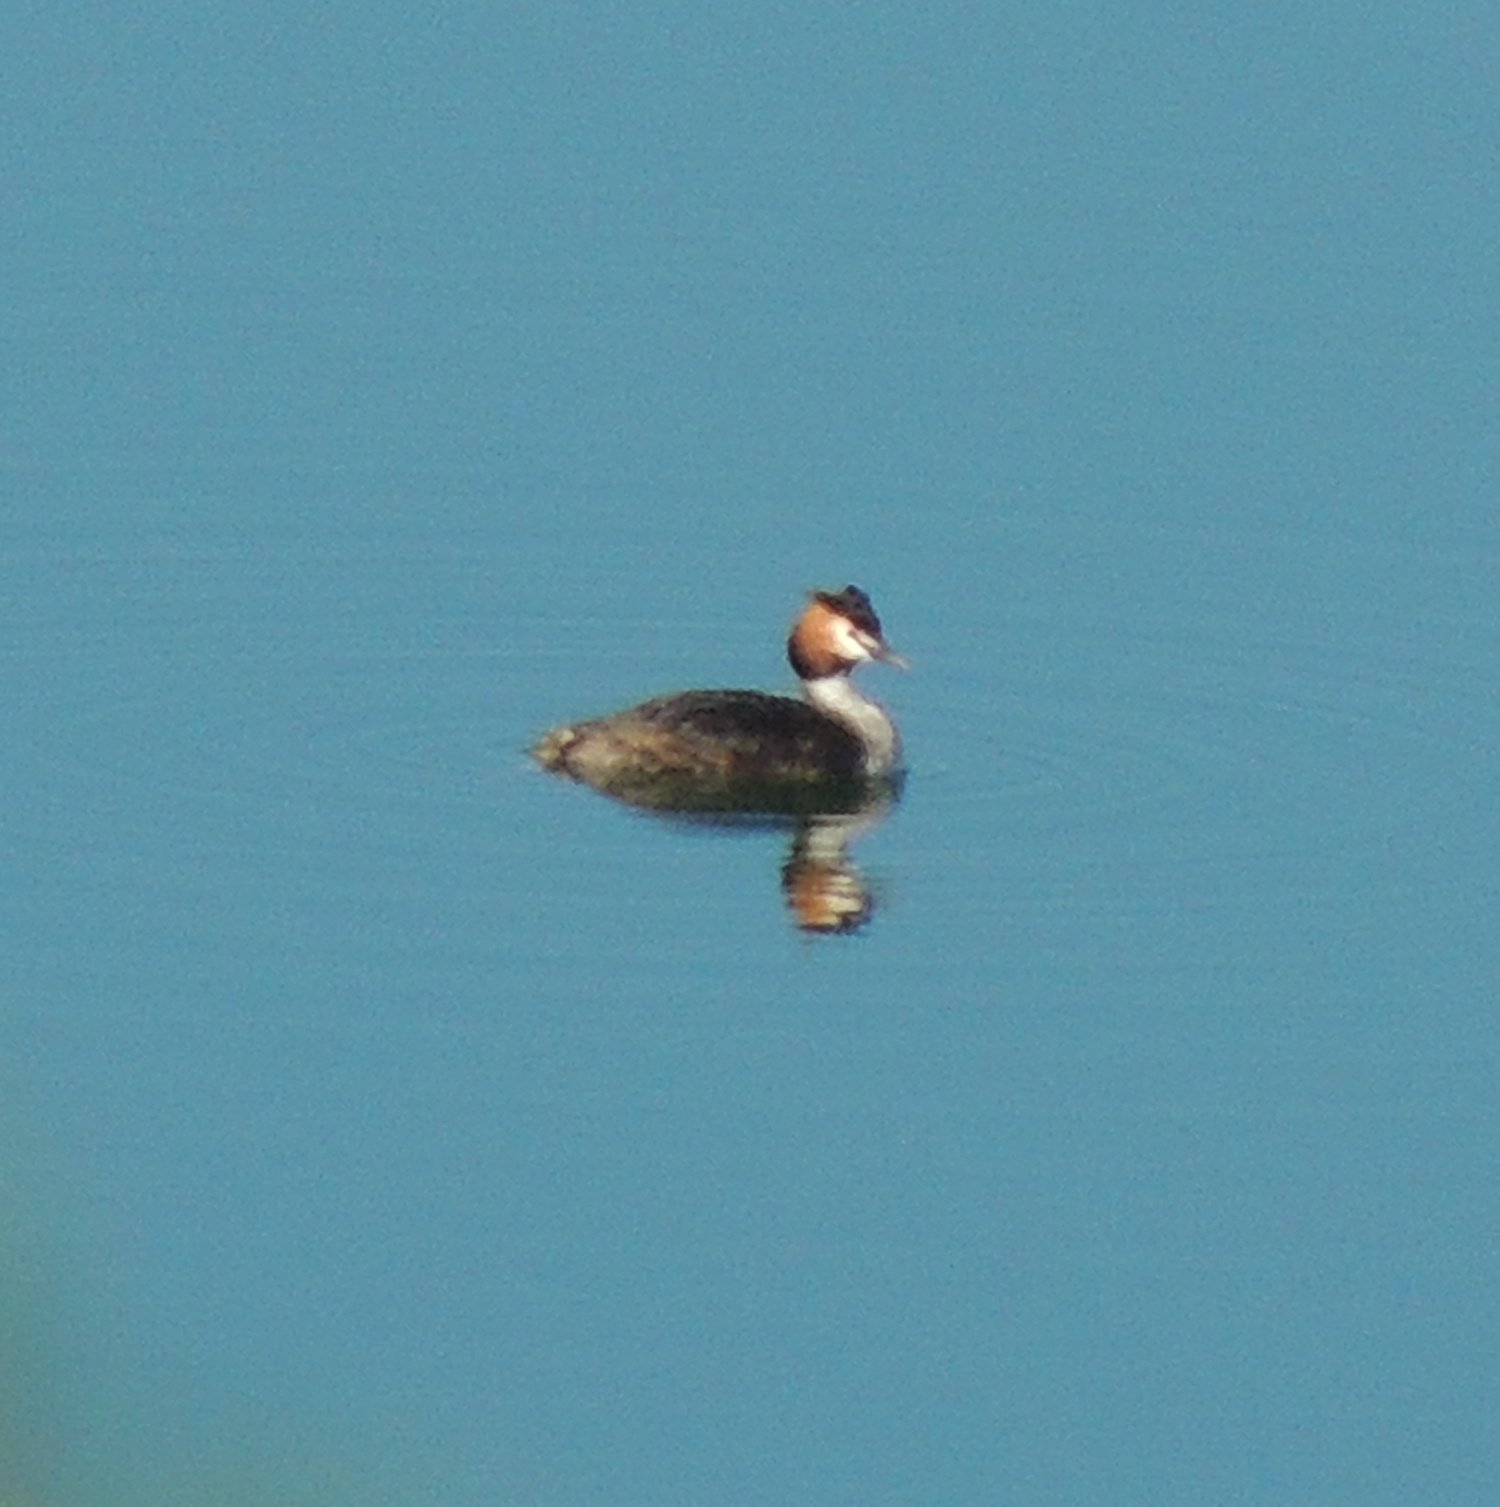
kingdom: Animalia
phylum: Chordata
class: Aves
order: Podicipediformes
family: Podicipedidae
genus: Podiceps
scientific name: Podiceps cristatus
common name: Great crested grebe
